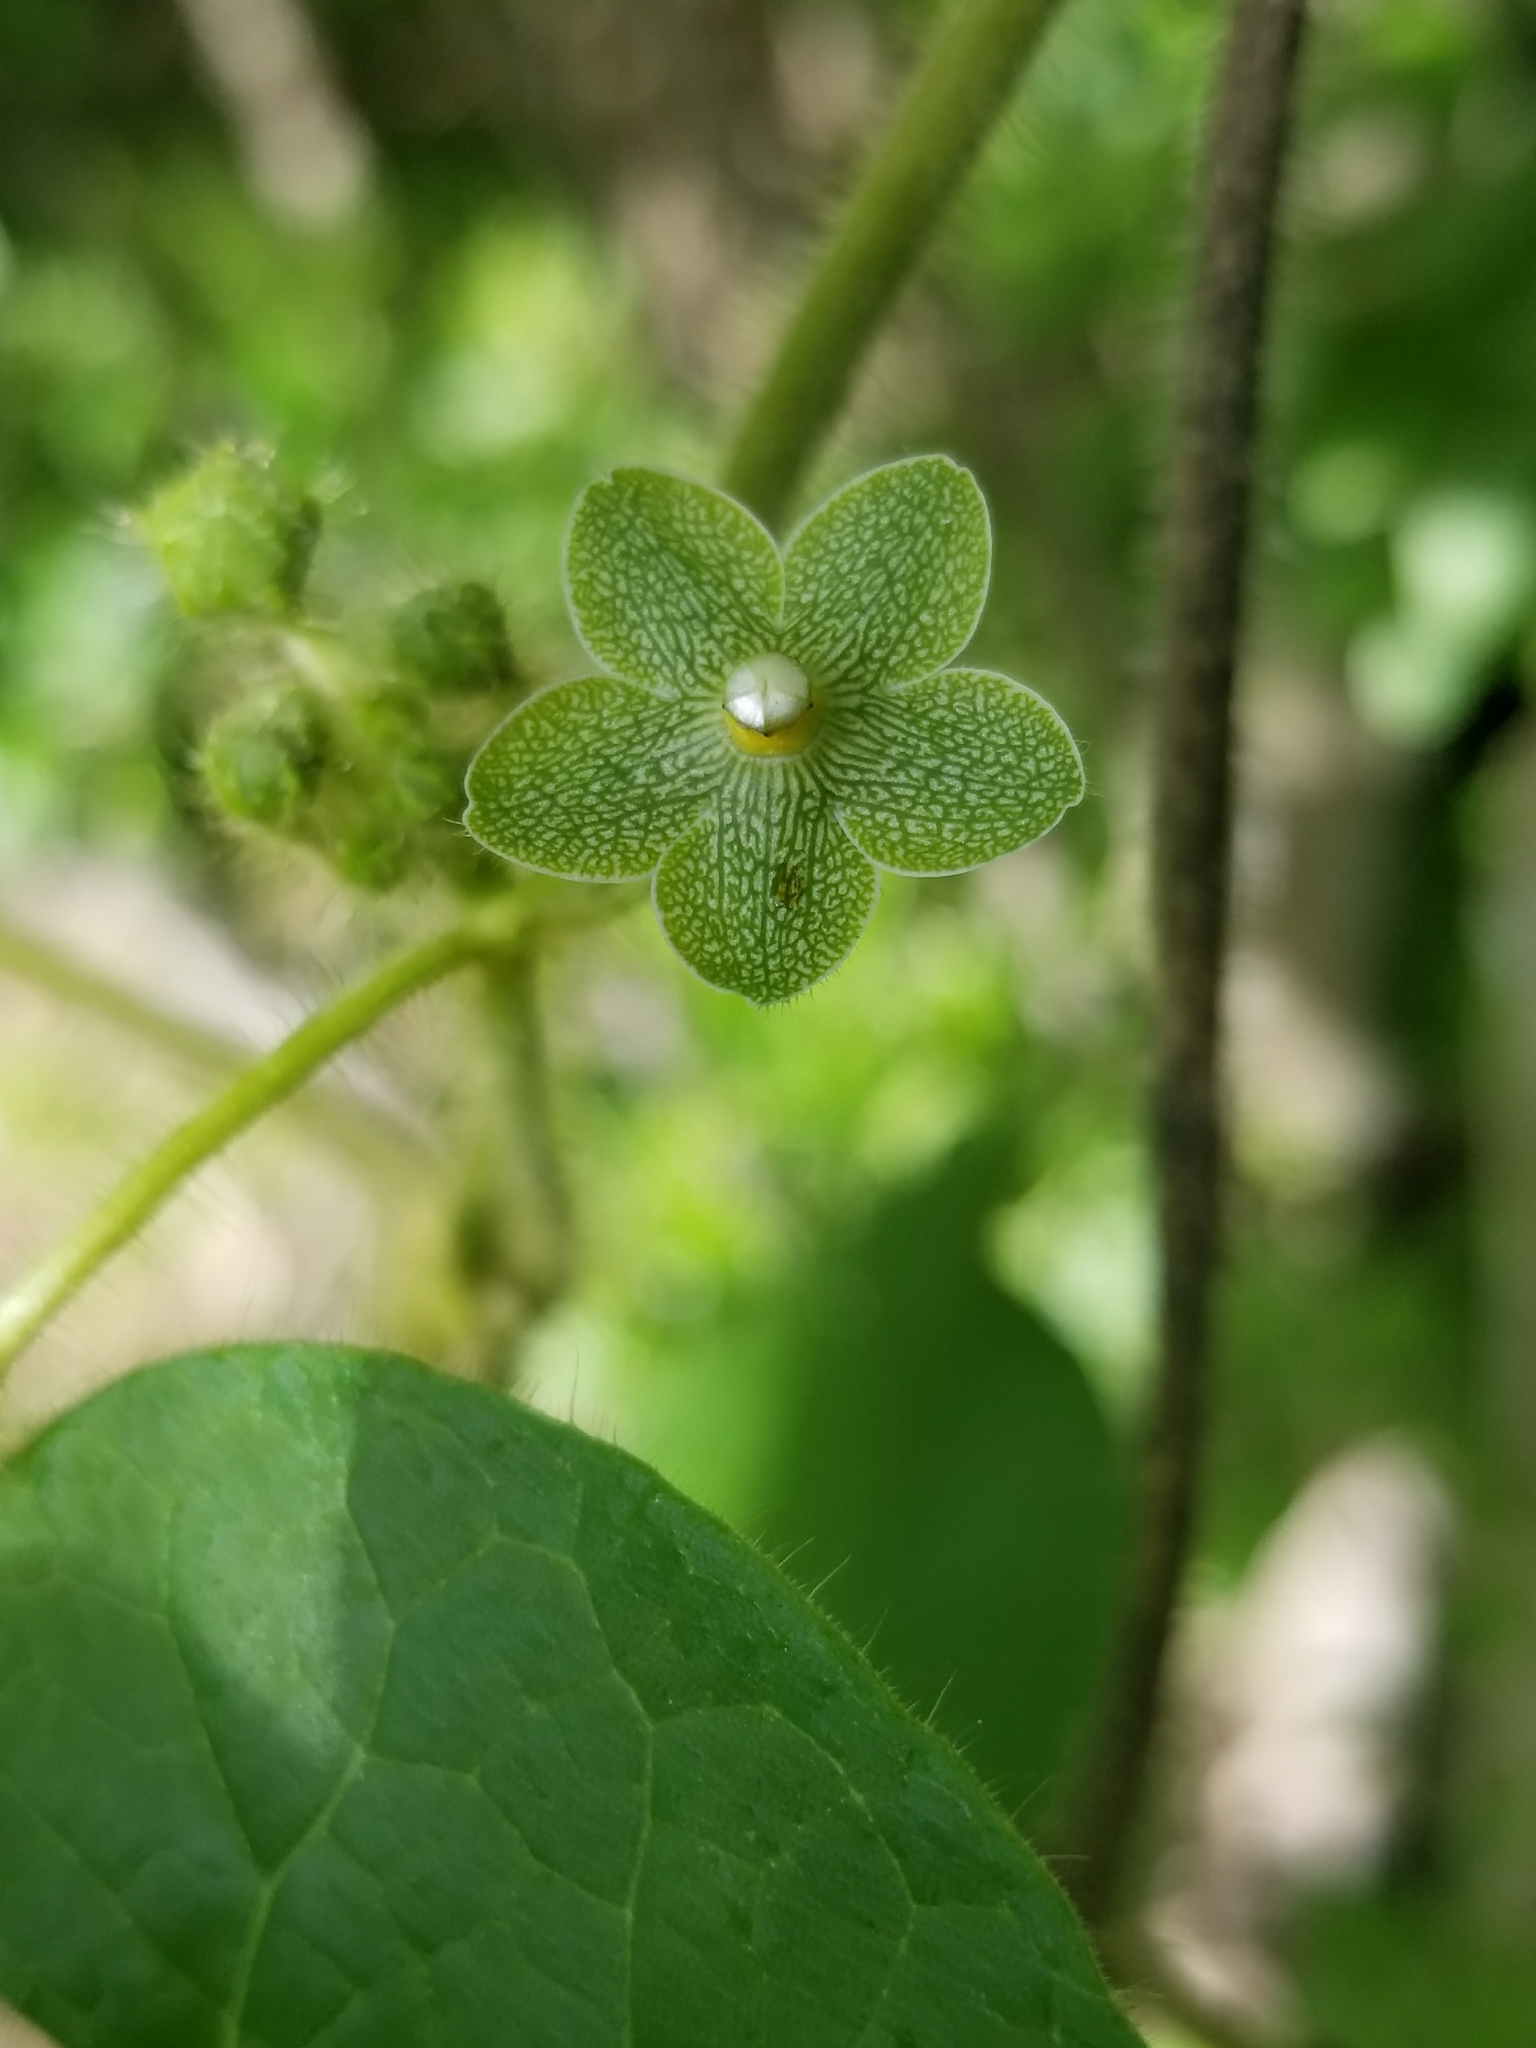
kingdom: Plantae
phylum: Tracheophyta
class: Magnoliopsida
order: Gentianales
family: Apocynaceae
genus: Dictyanthus
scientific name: Dictyanthus reticulatus
